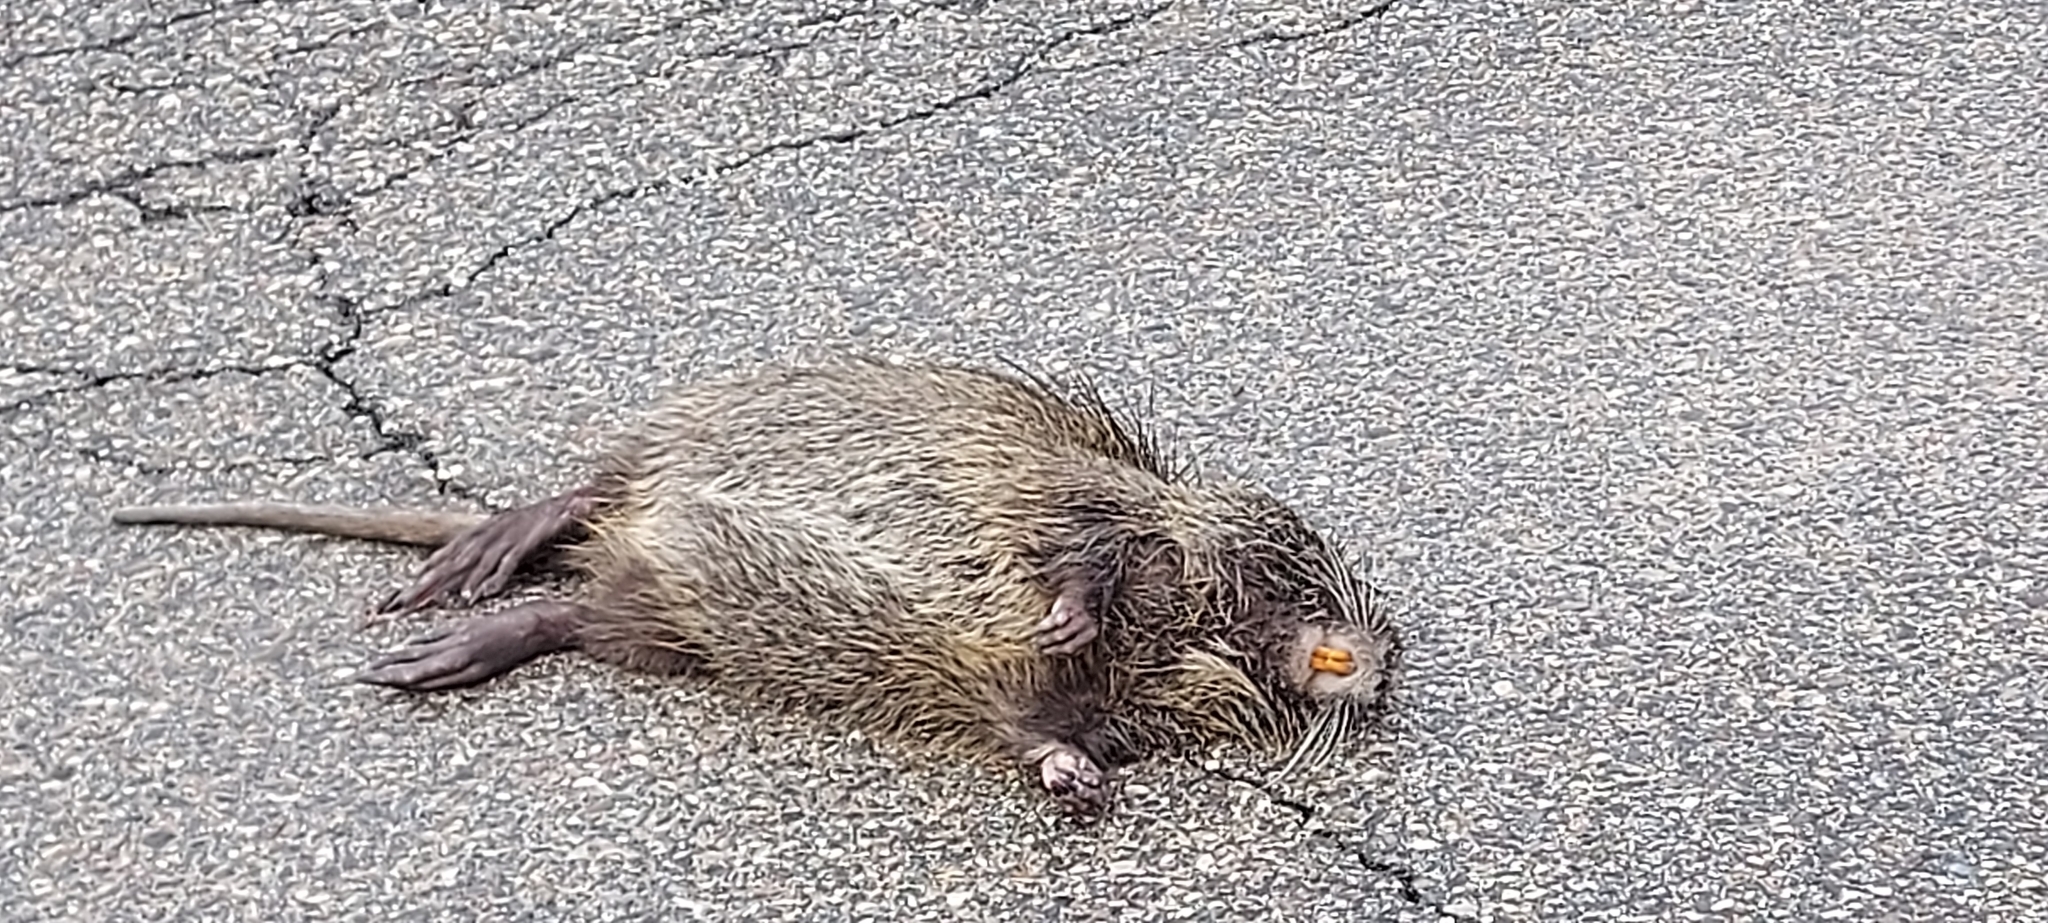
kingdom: Animalia
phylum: Chordata
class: Mammalia
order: Rodentia
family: Myocastoridae
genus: Myocastor
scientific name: Myocastor coypus
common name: Coypu
